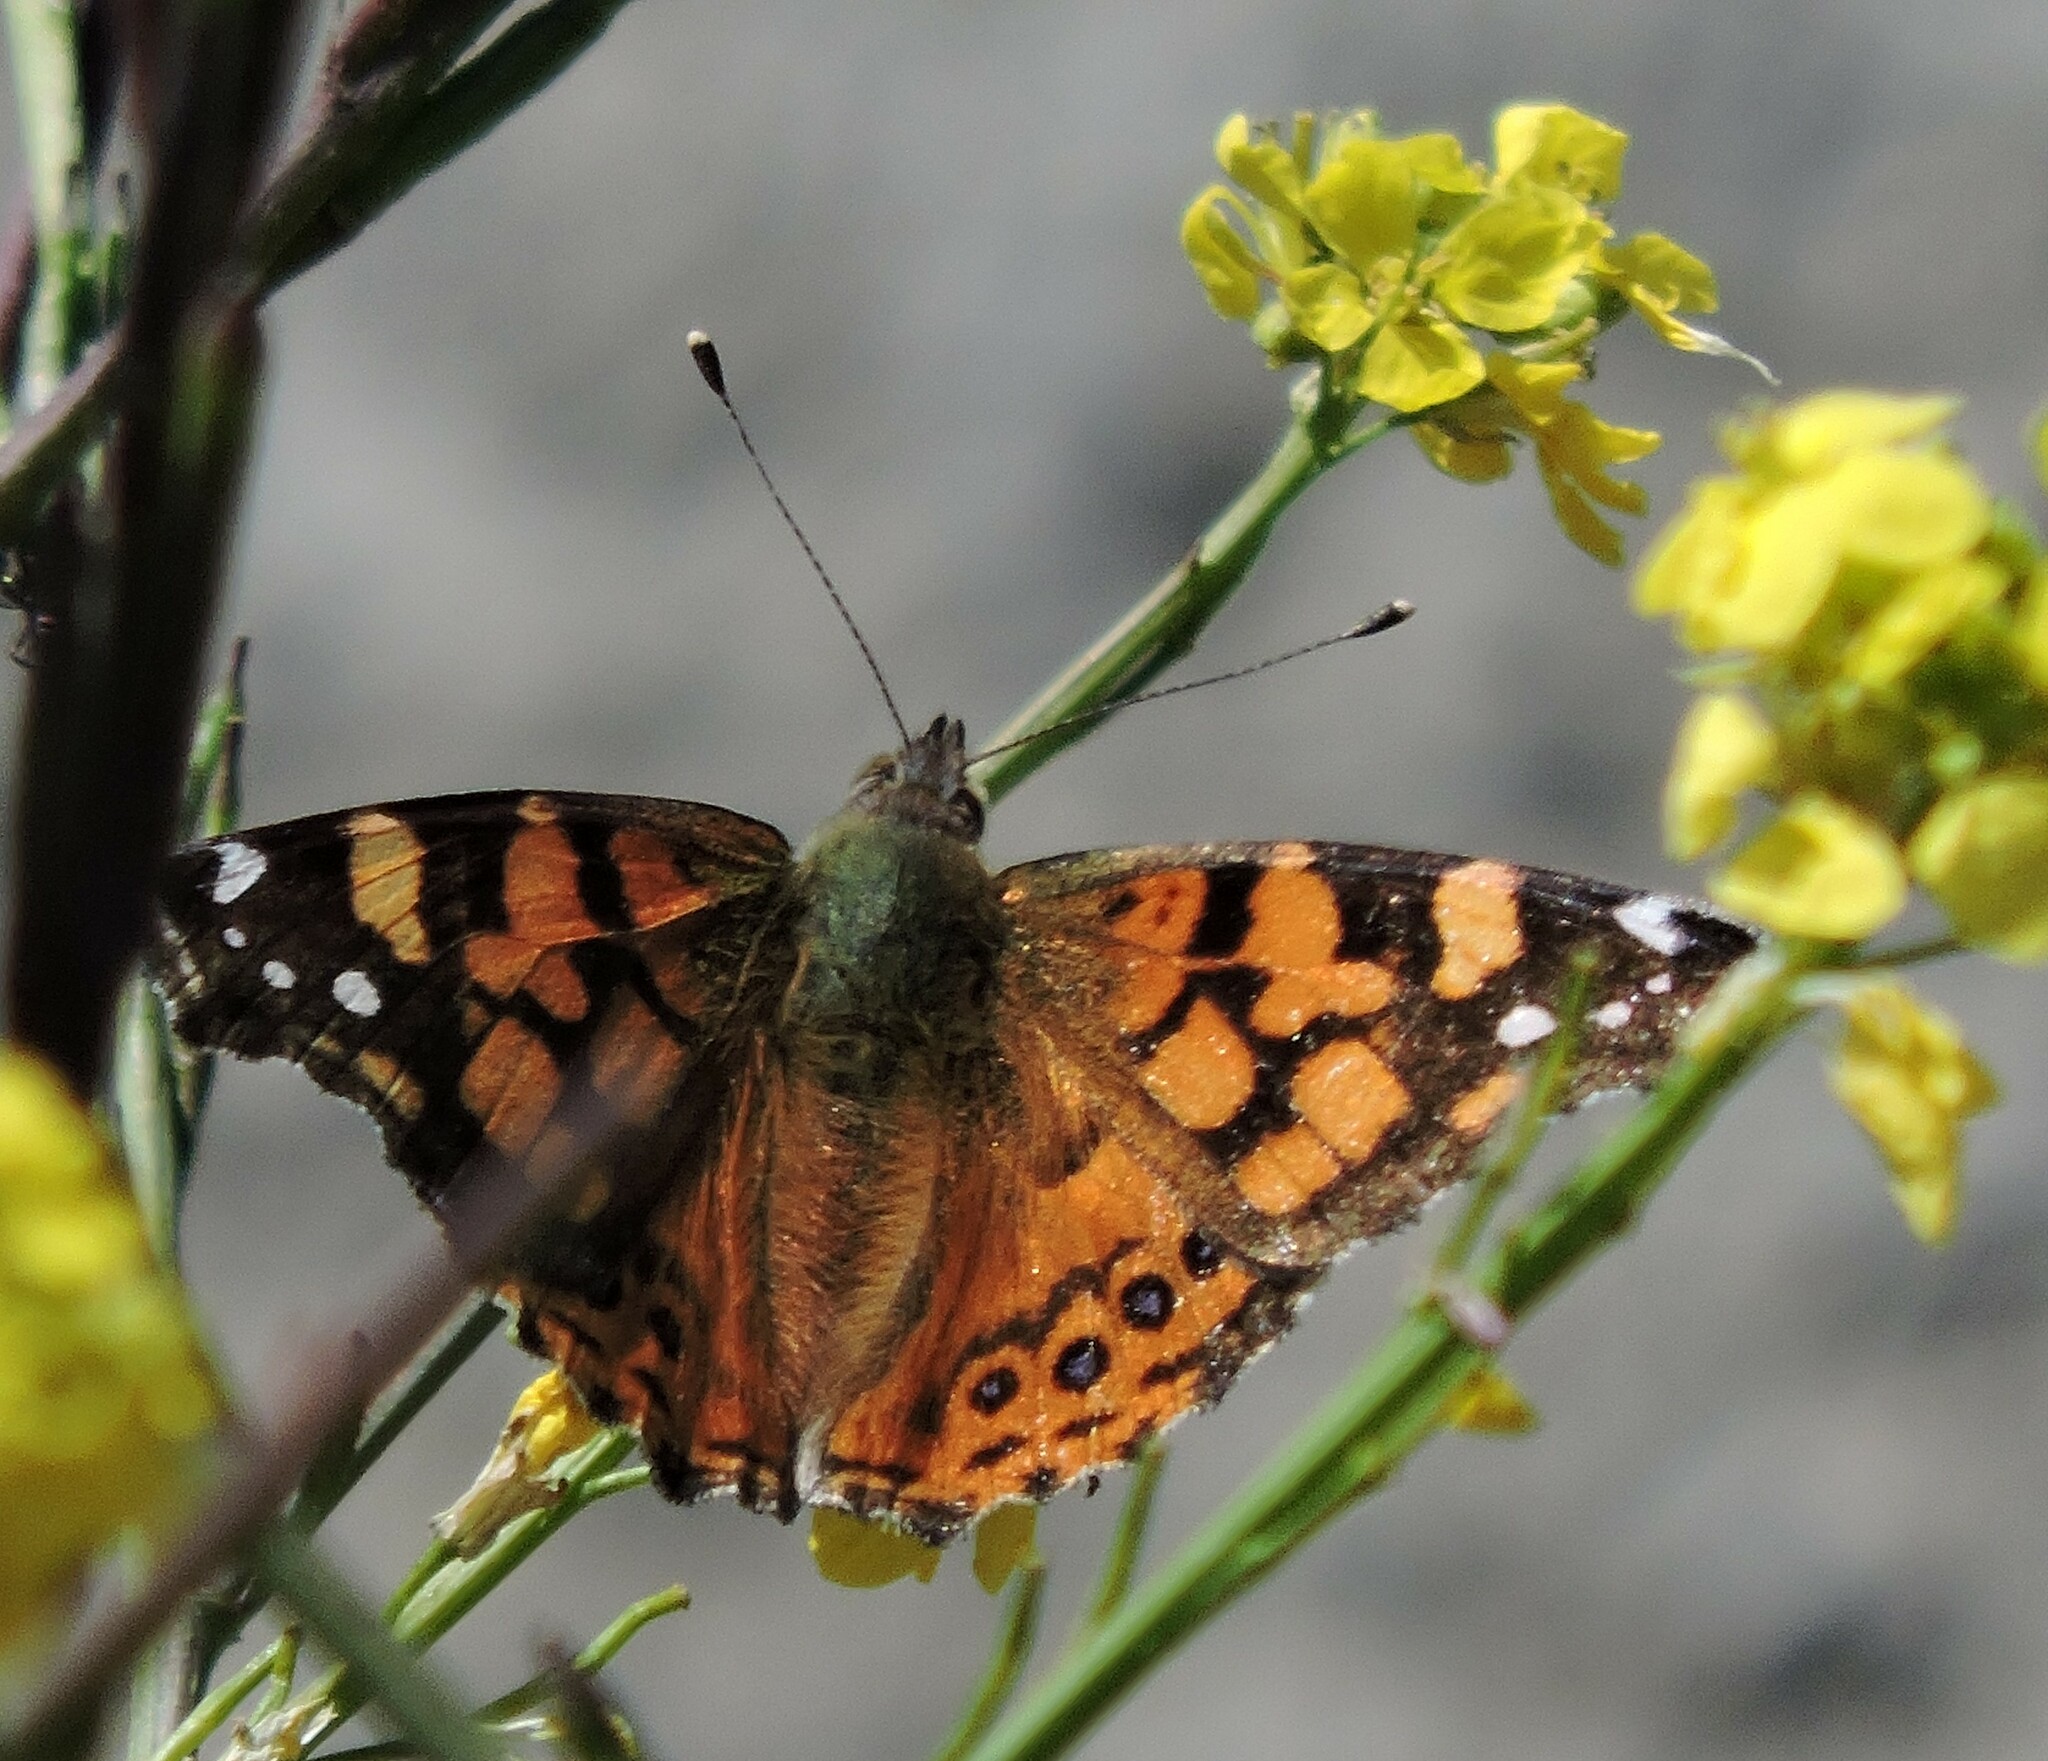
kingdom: Animalia
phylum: Arthropoda
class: Insecta
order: Lepidoptera
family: Nymphalidae
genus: Vanessa
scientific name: Vanessa annabella
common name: West coast lady
